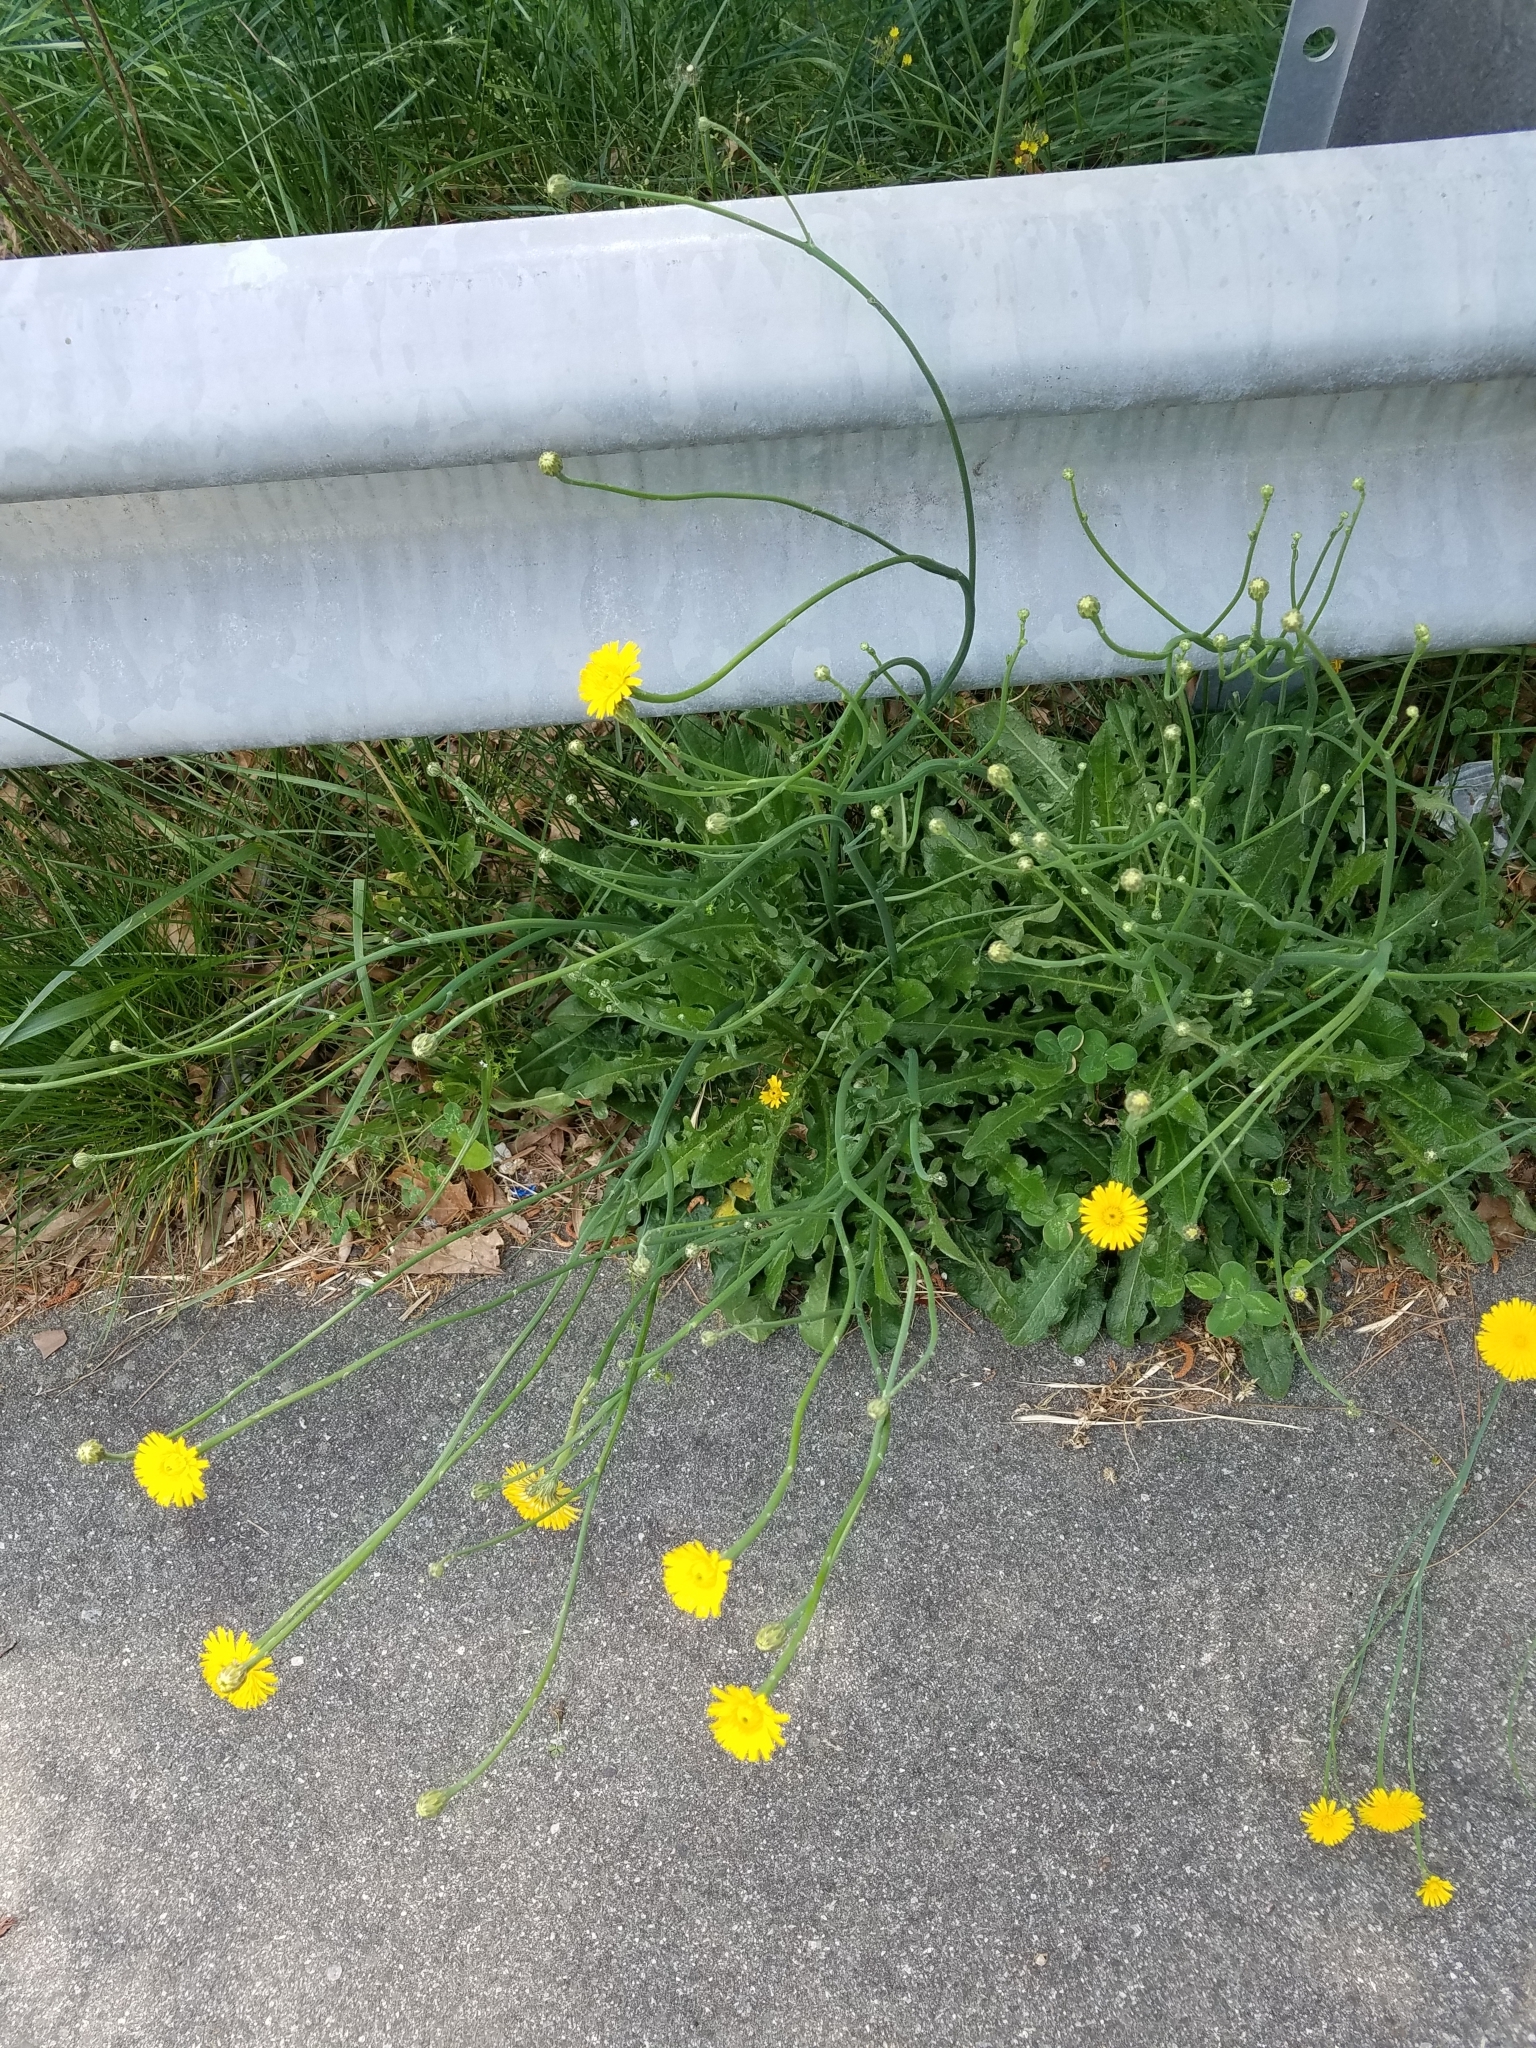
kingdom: Plantae
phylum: Tracheophyta
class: Magnoliopsida
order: Asterales
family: Asteraceae
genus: Hypochaeris
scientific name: Hypochaeris radicata
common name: Flatweed
